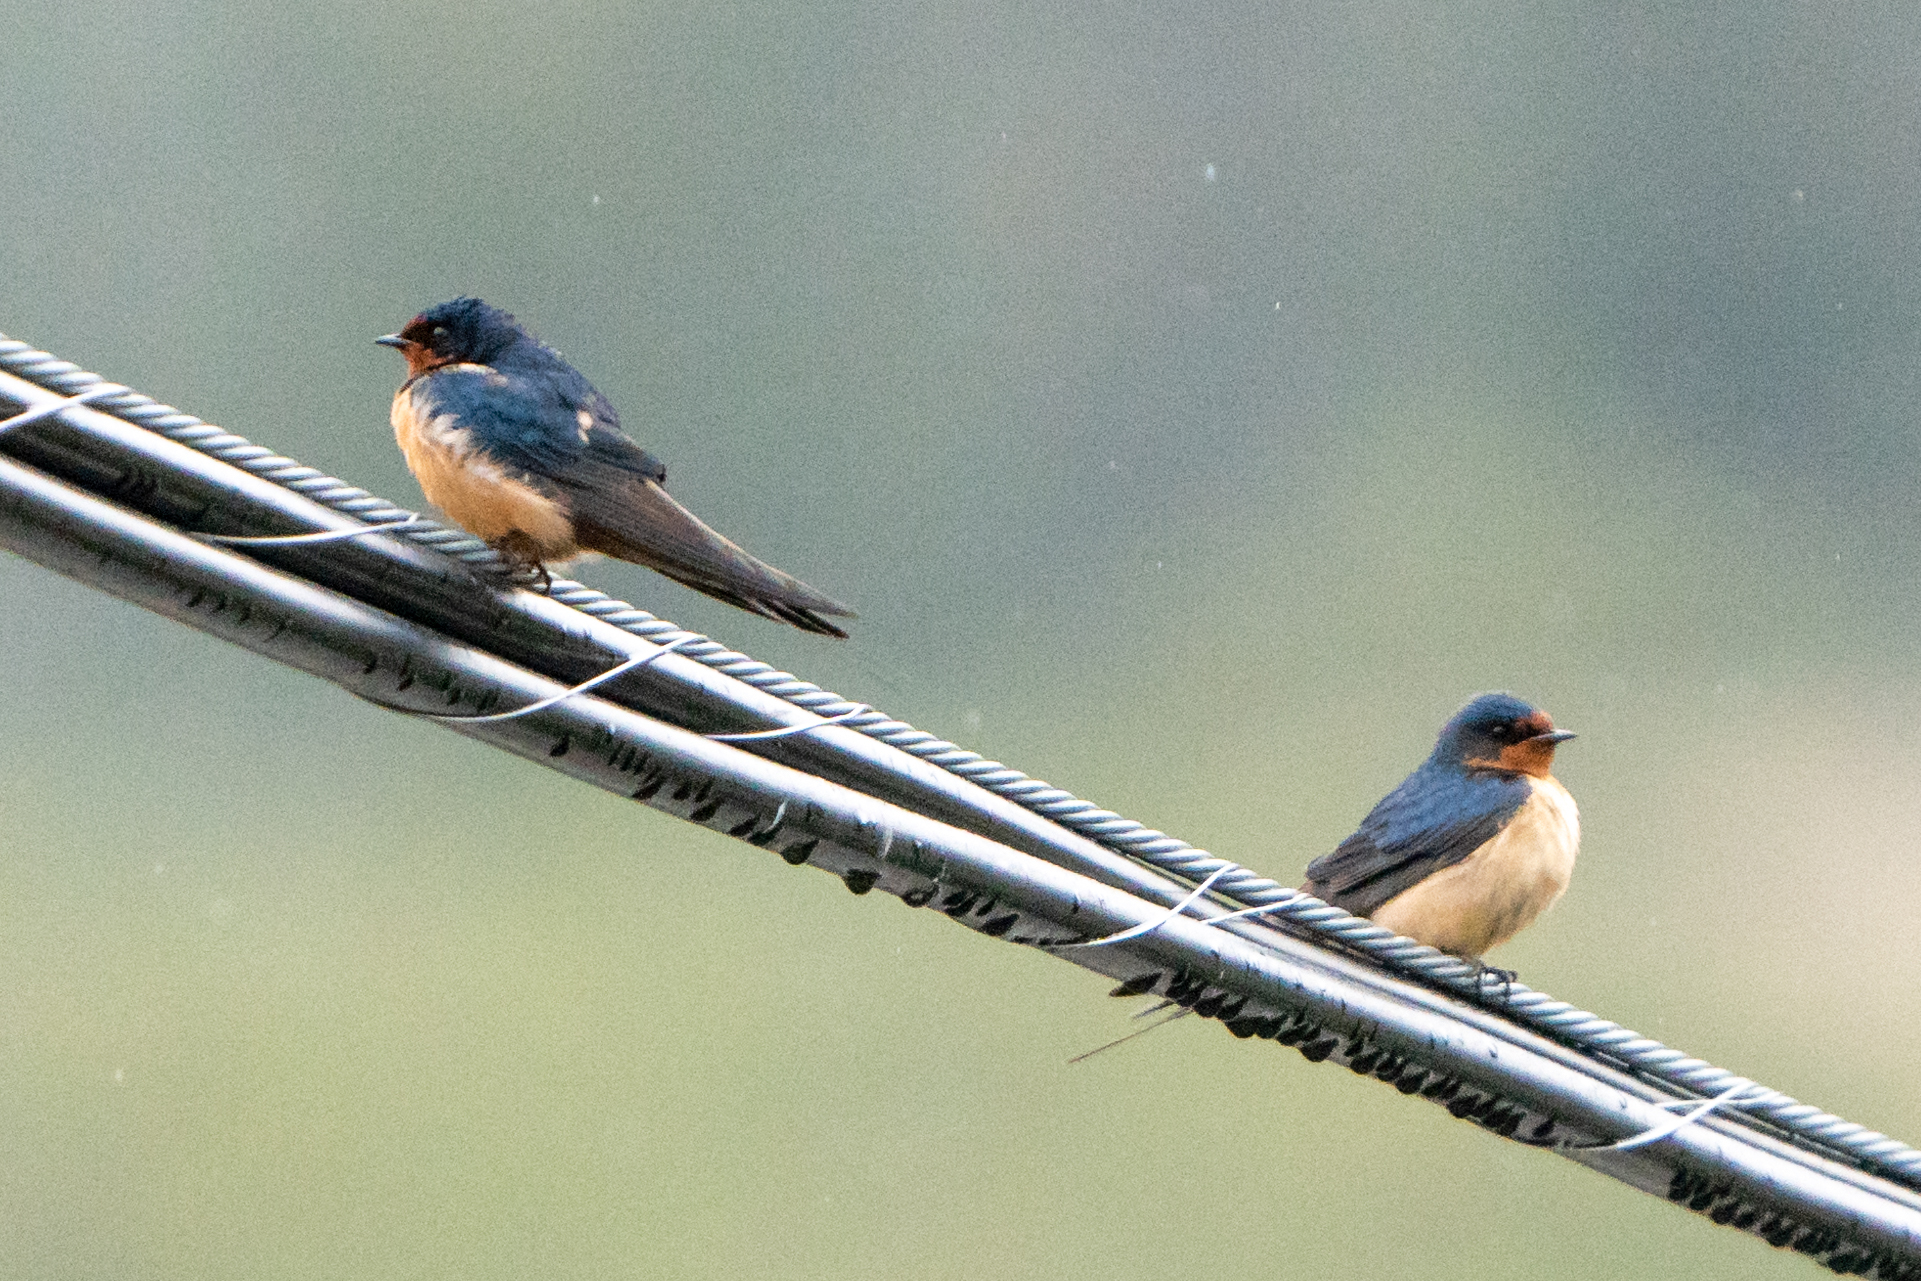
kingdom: Animalia
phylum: Chordata
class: Aves
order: Passeriformes
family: Hirundinidae
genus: Hirundo
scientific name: Hirundo rustica
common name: Barn swallow
